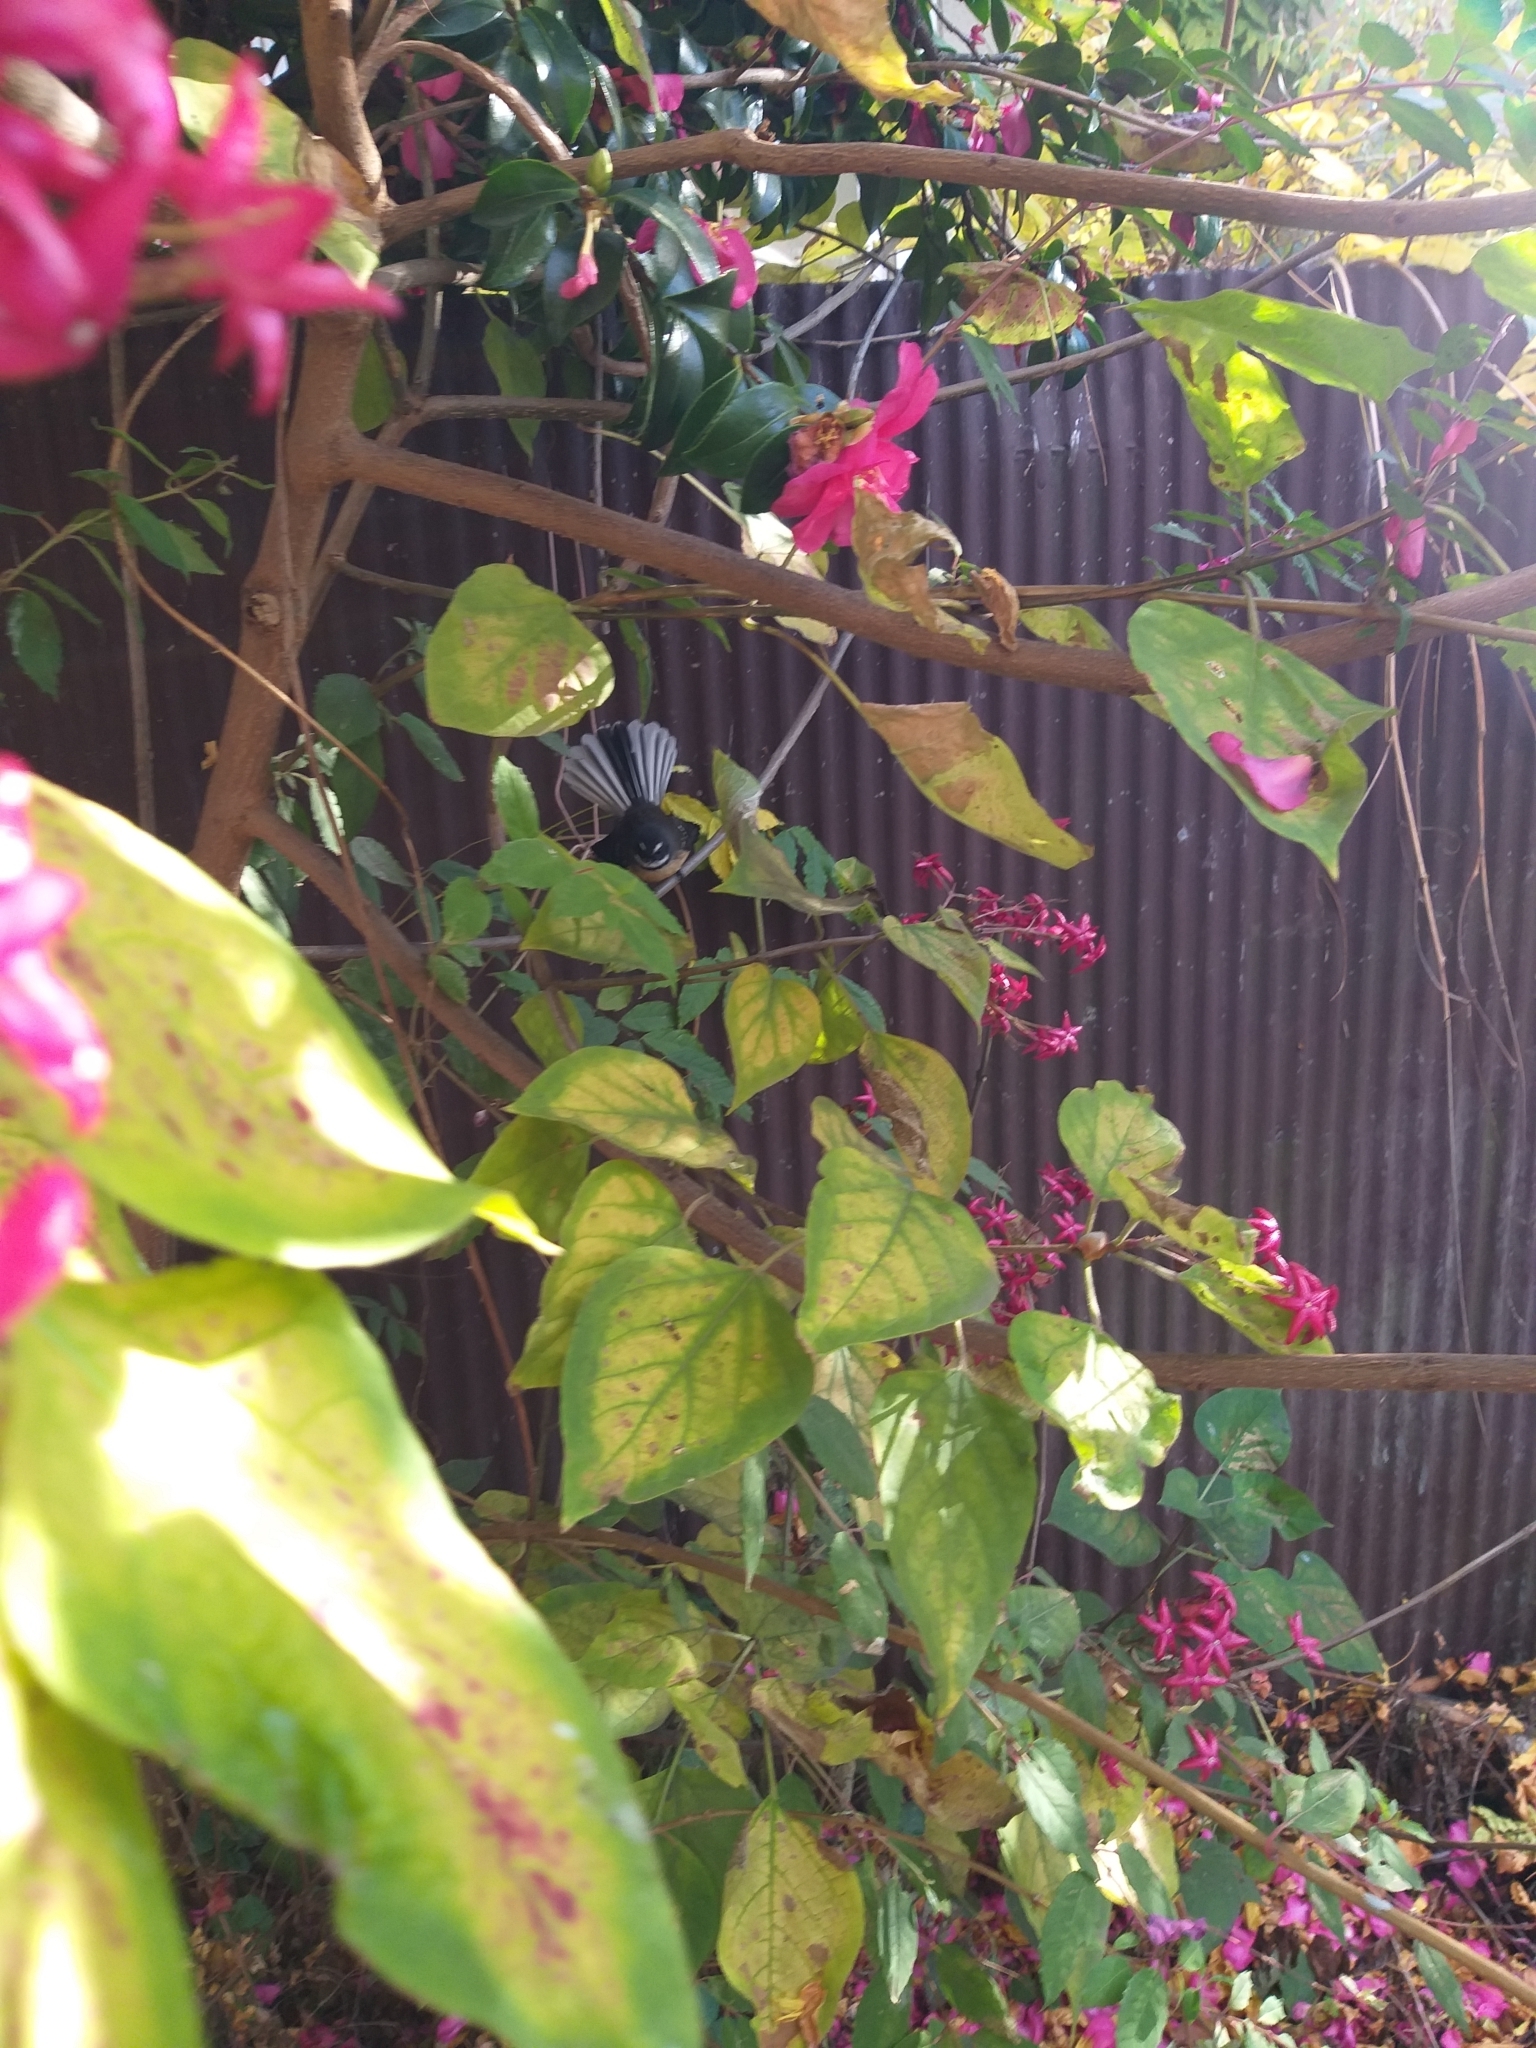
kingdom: Animalia
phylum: Chordata
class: Aves
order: Passeriformes
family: Rhipiduridae
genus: Rhipidura
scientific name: Rhipidura fuliginosa
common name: New zealand fantail
